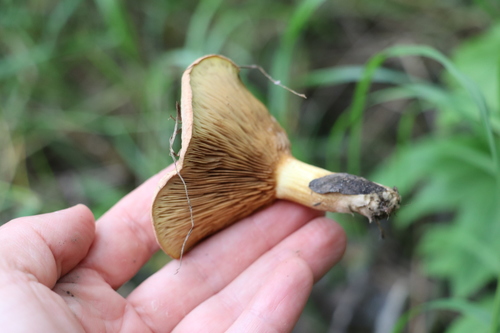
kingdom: Fungi
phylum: Basidiomycota
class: Agaricomycetes
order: Boletales
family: Paxillaceae
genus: Paxillus
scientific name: Paxillus involutus
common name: Brown roll rim
